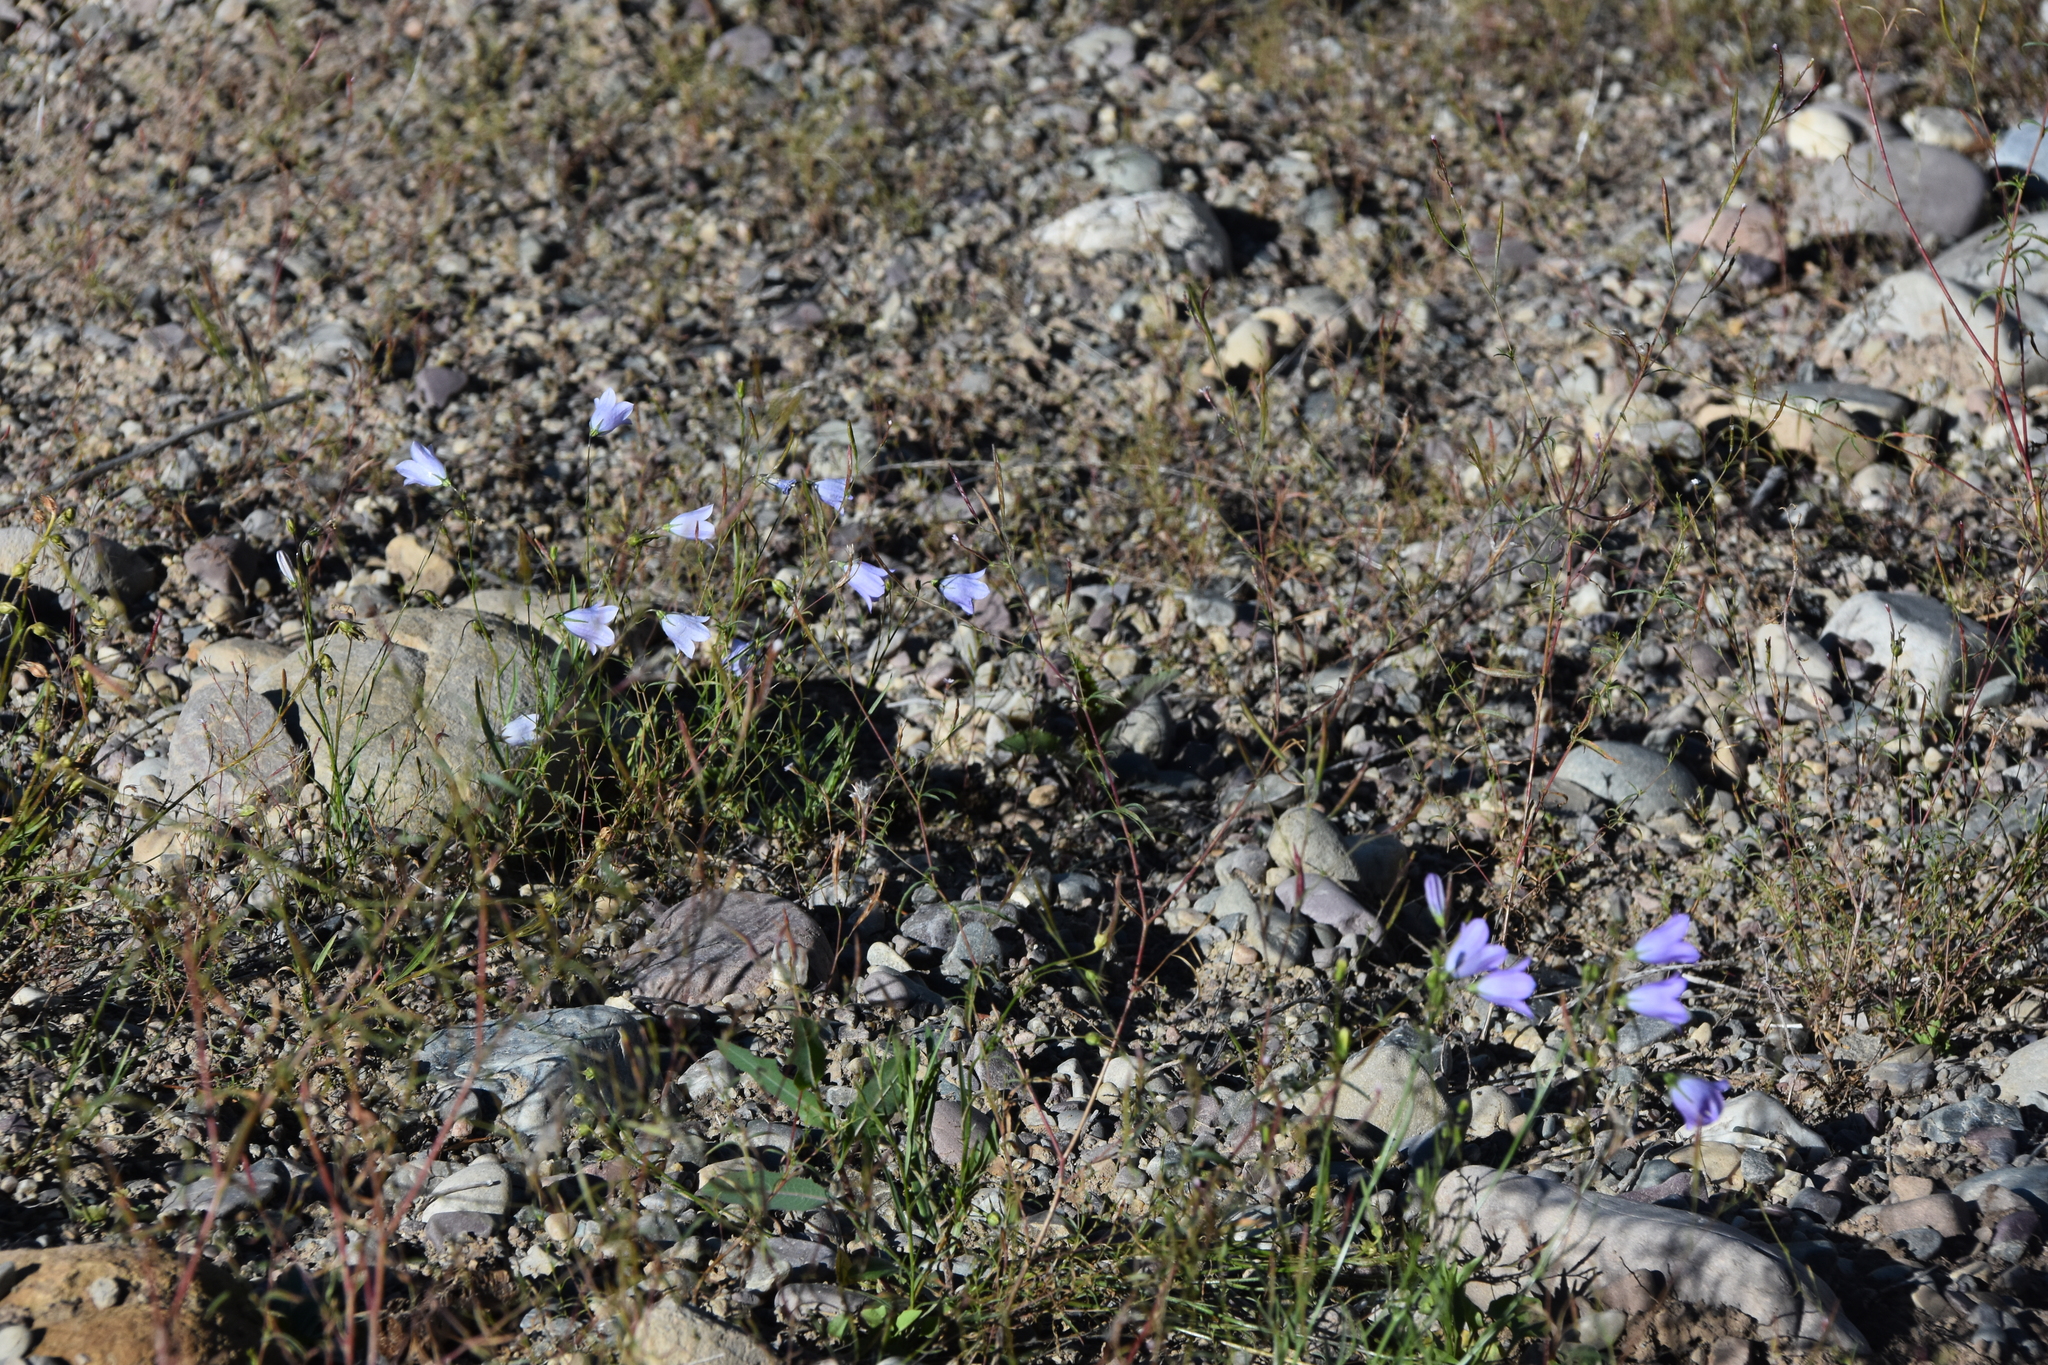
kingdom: Plantae
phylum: Tracheophyta
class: Magnoliopsida
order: Asterales
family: Campanulaceae
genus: Campanula
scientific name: Campanula
